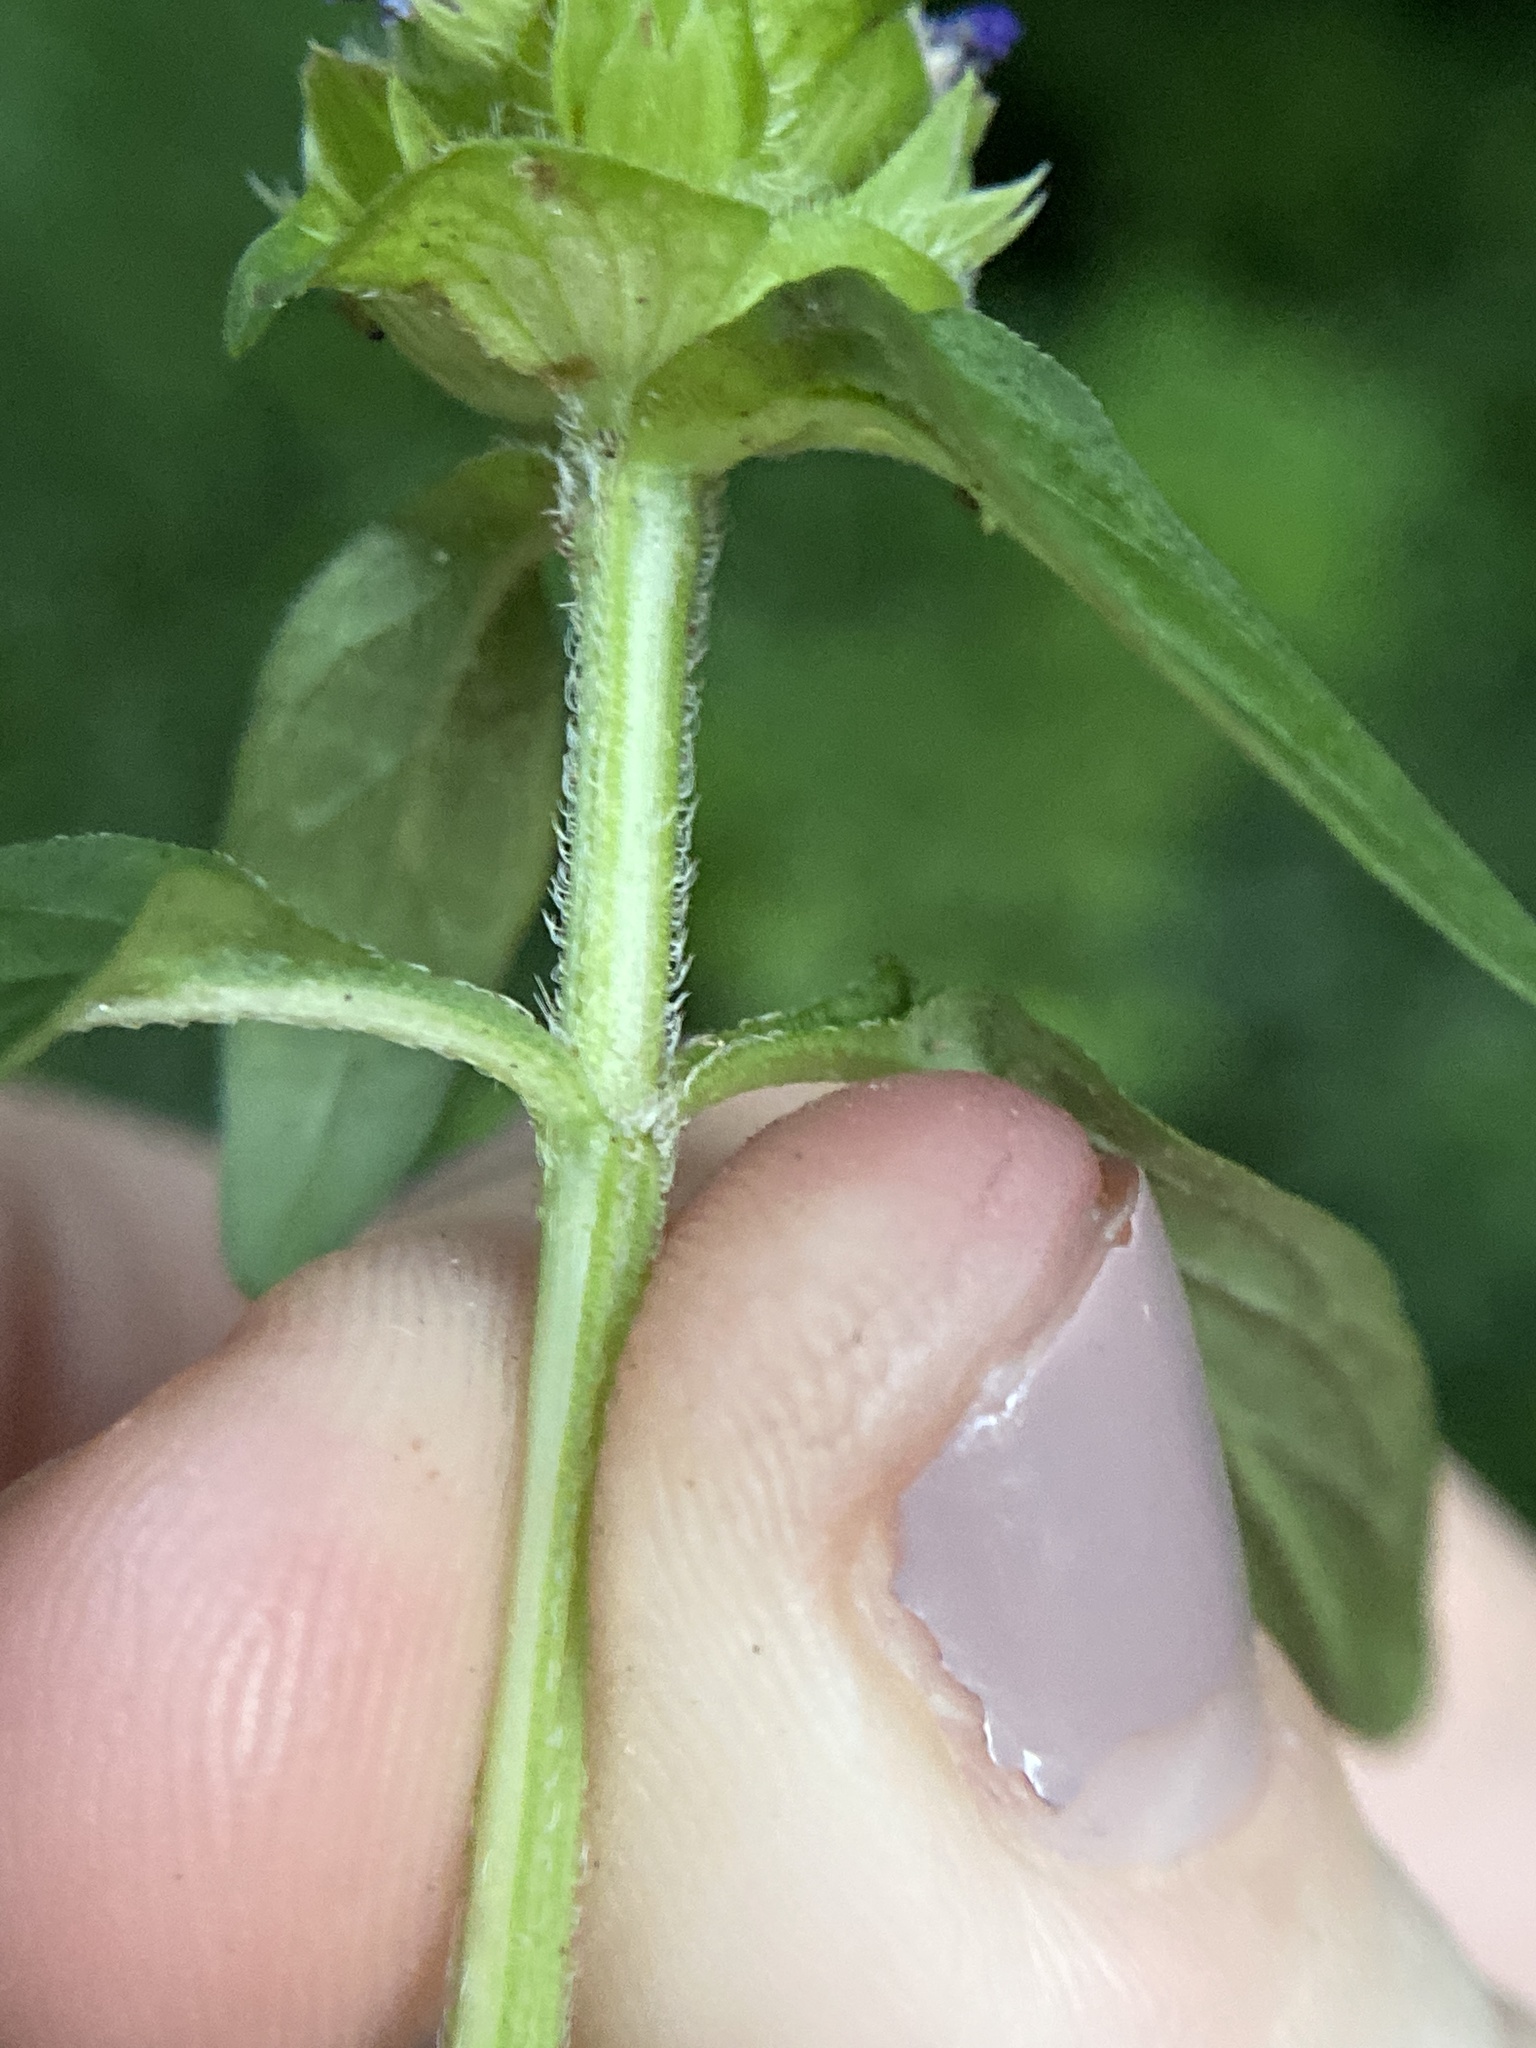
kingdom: Plantae
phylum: Tracheophyta
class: Magnoliopsida
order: Lamiales
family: Lamiaceae
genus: Prunella
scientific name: Prunella vulgaris
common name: Heal-all
